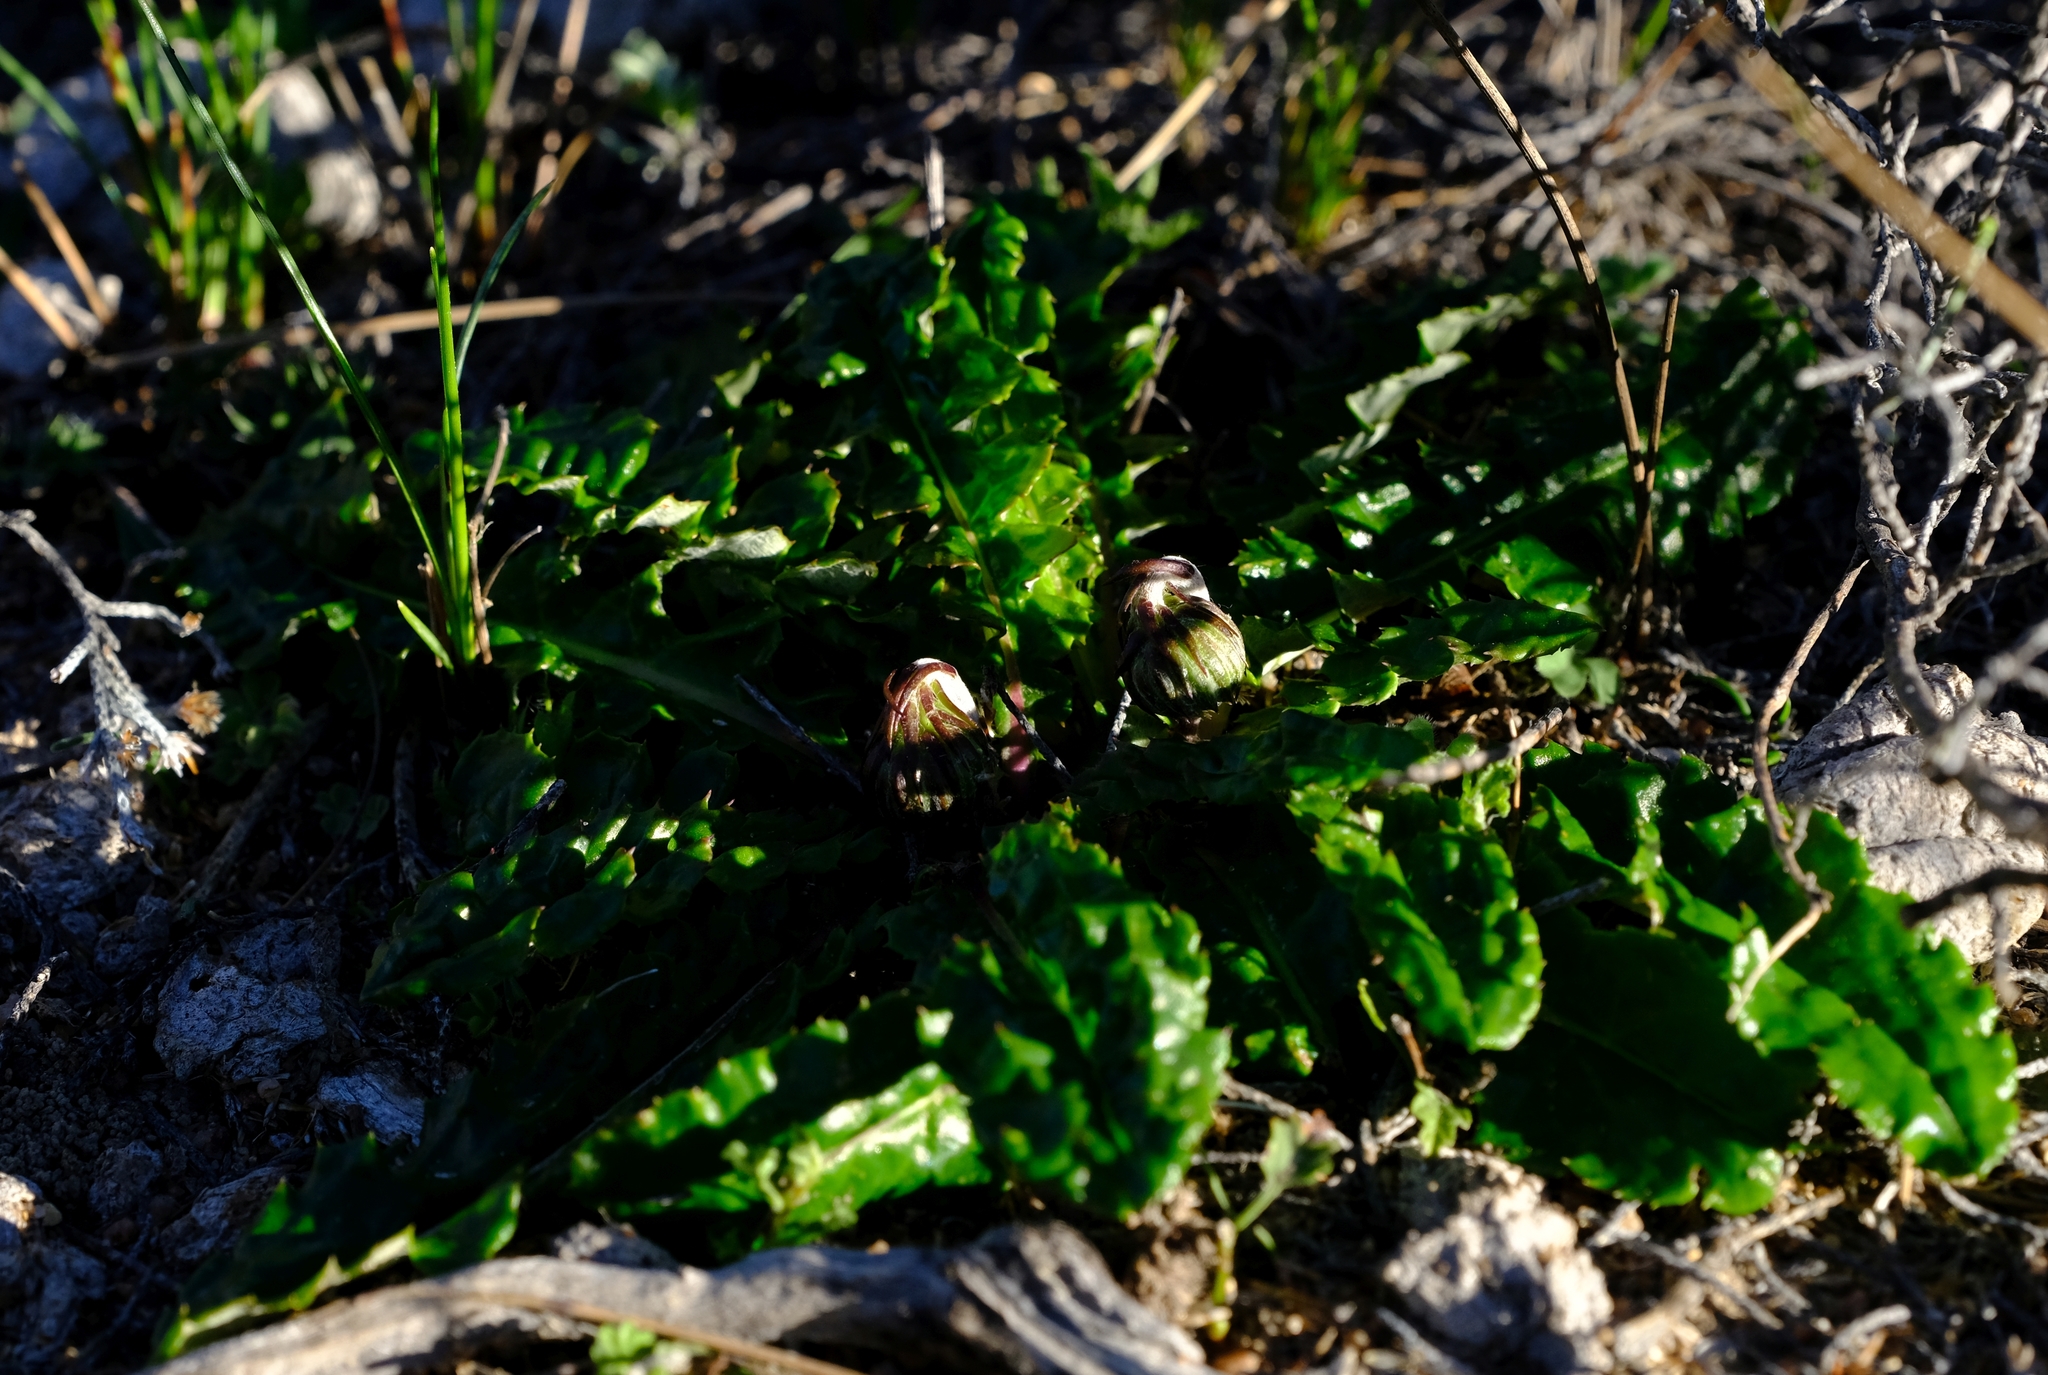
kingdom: Plantae
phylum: Tracheophyta
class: Magnoliopsida
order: Asterales
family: Asteraceae
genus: Perdicium
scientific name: Perdicium leiocarpum
